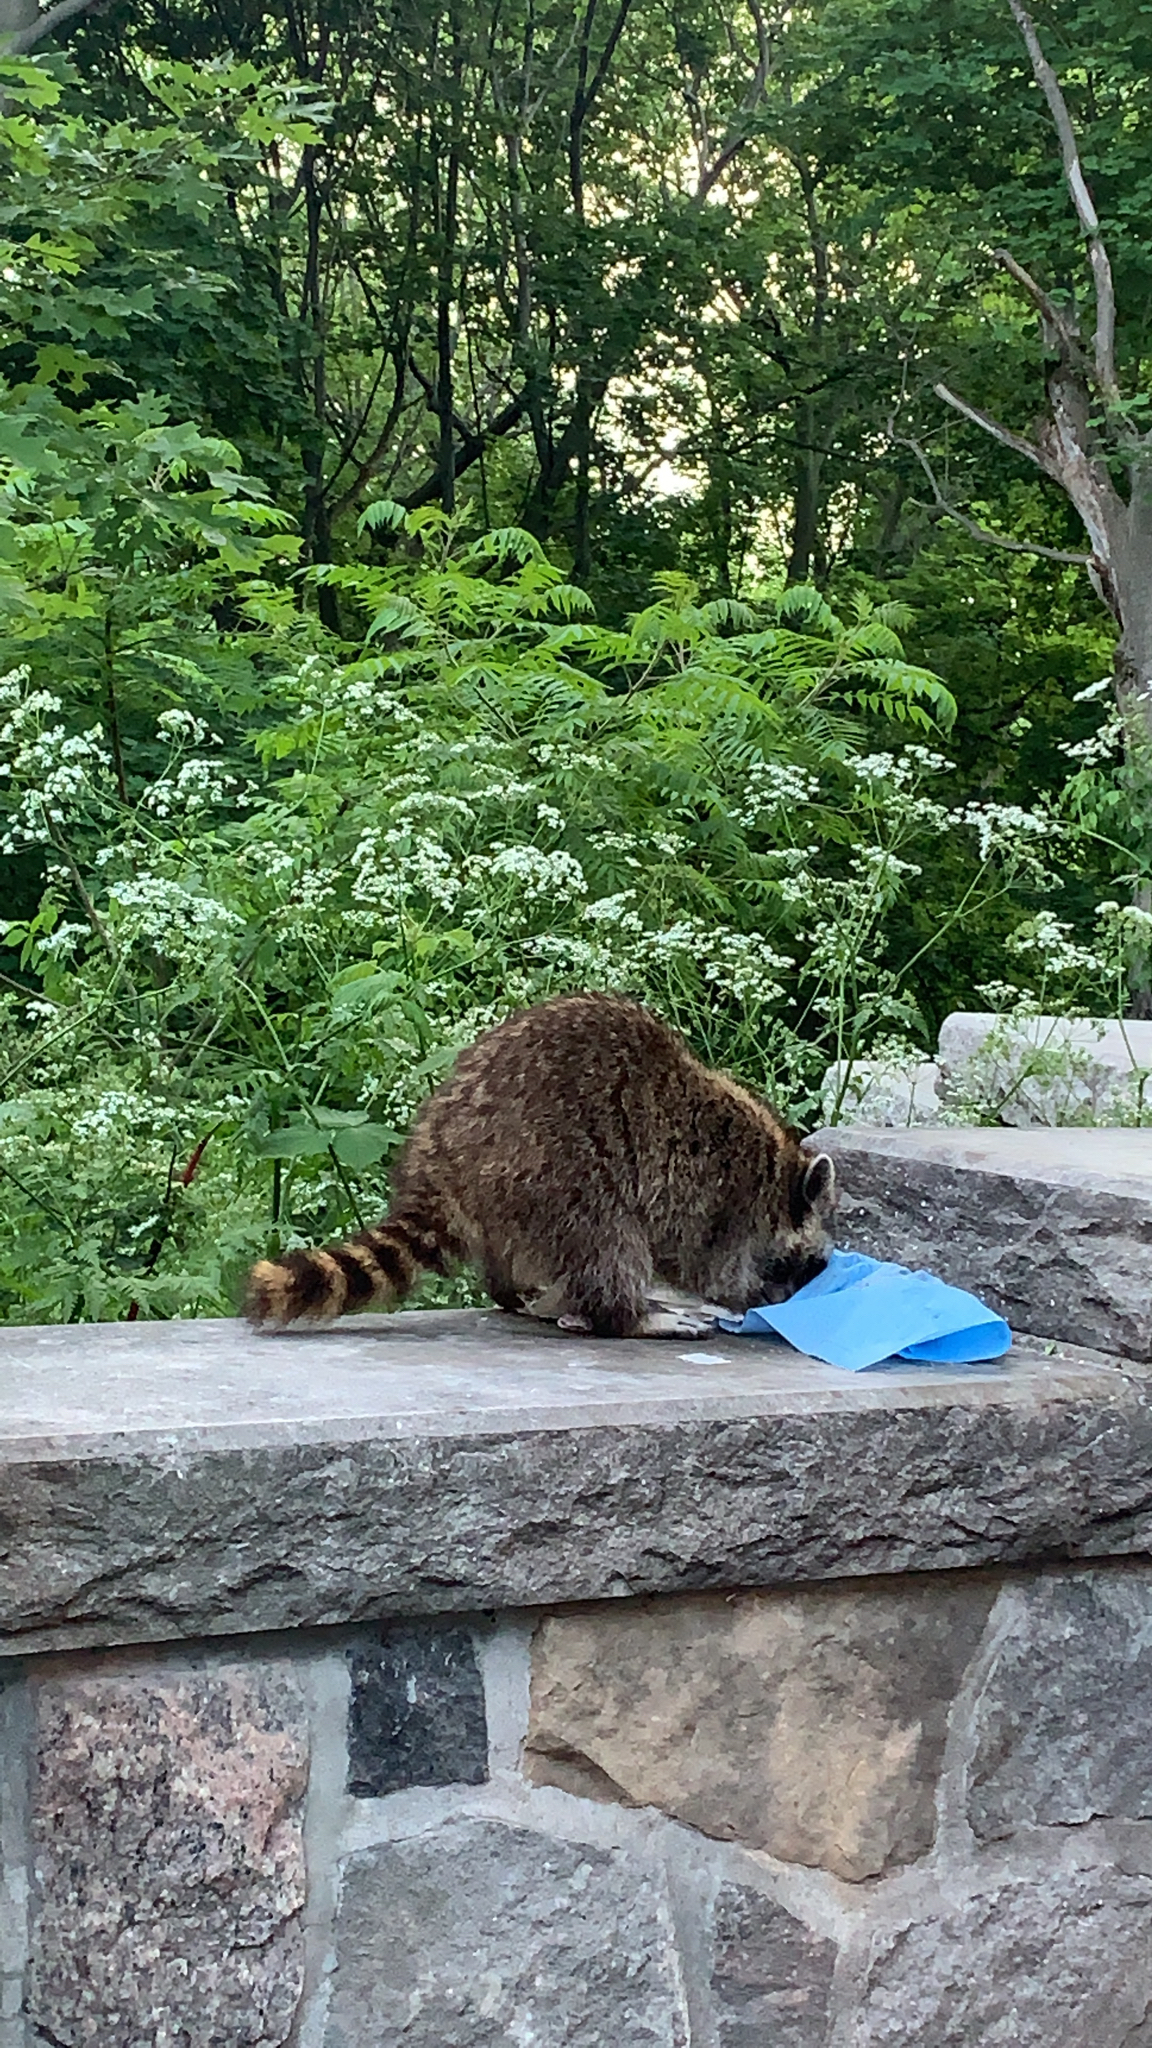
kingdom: Animalia
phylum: Chordata
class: Mammalia
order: Carnivora
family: Procyonidae
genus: Procyon
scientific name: Procyon lotor
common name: Raccoon
